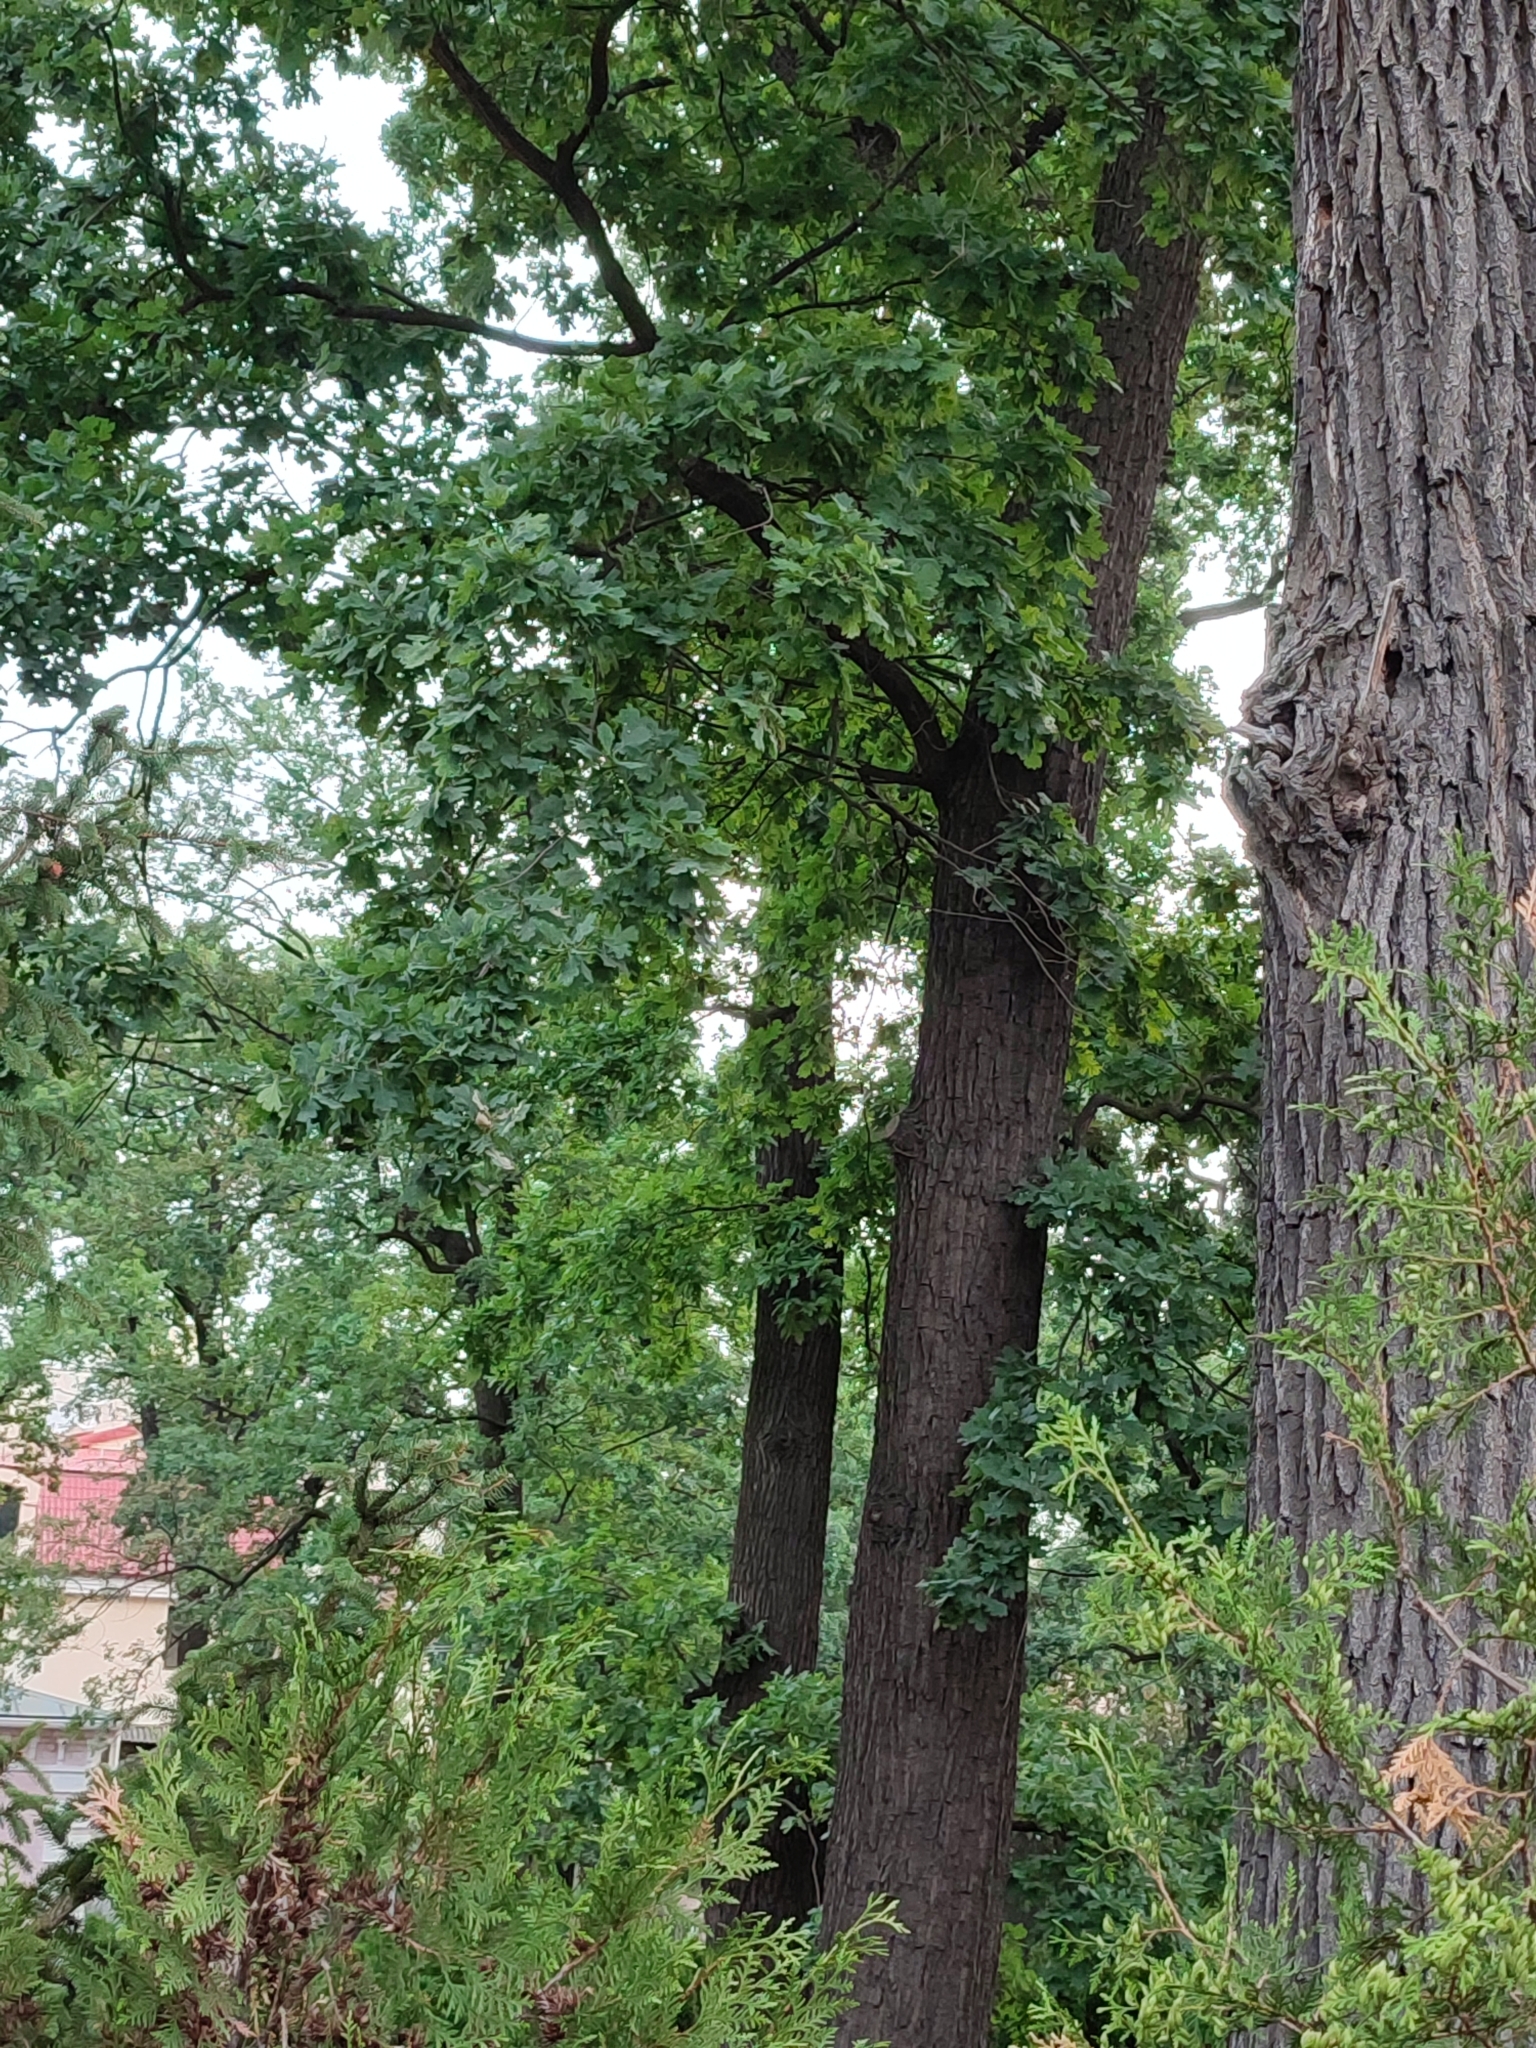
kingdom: Plantae
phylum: Tracheophyta
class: Magnoliopsida
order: Fagales
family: Fagaceae
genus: Quercus
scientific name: Quercus robur
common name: Pedunculate oak
